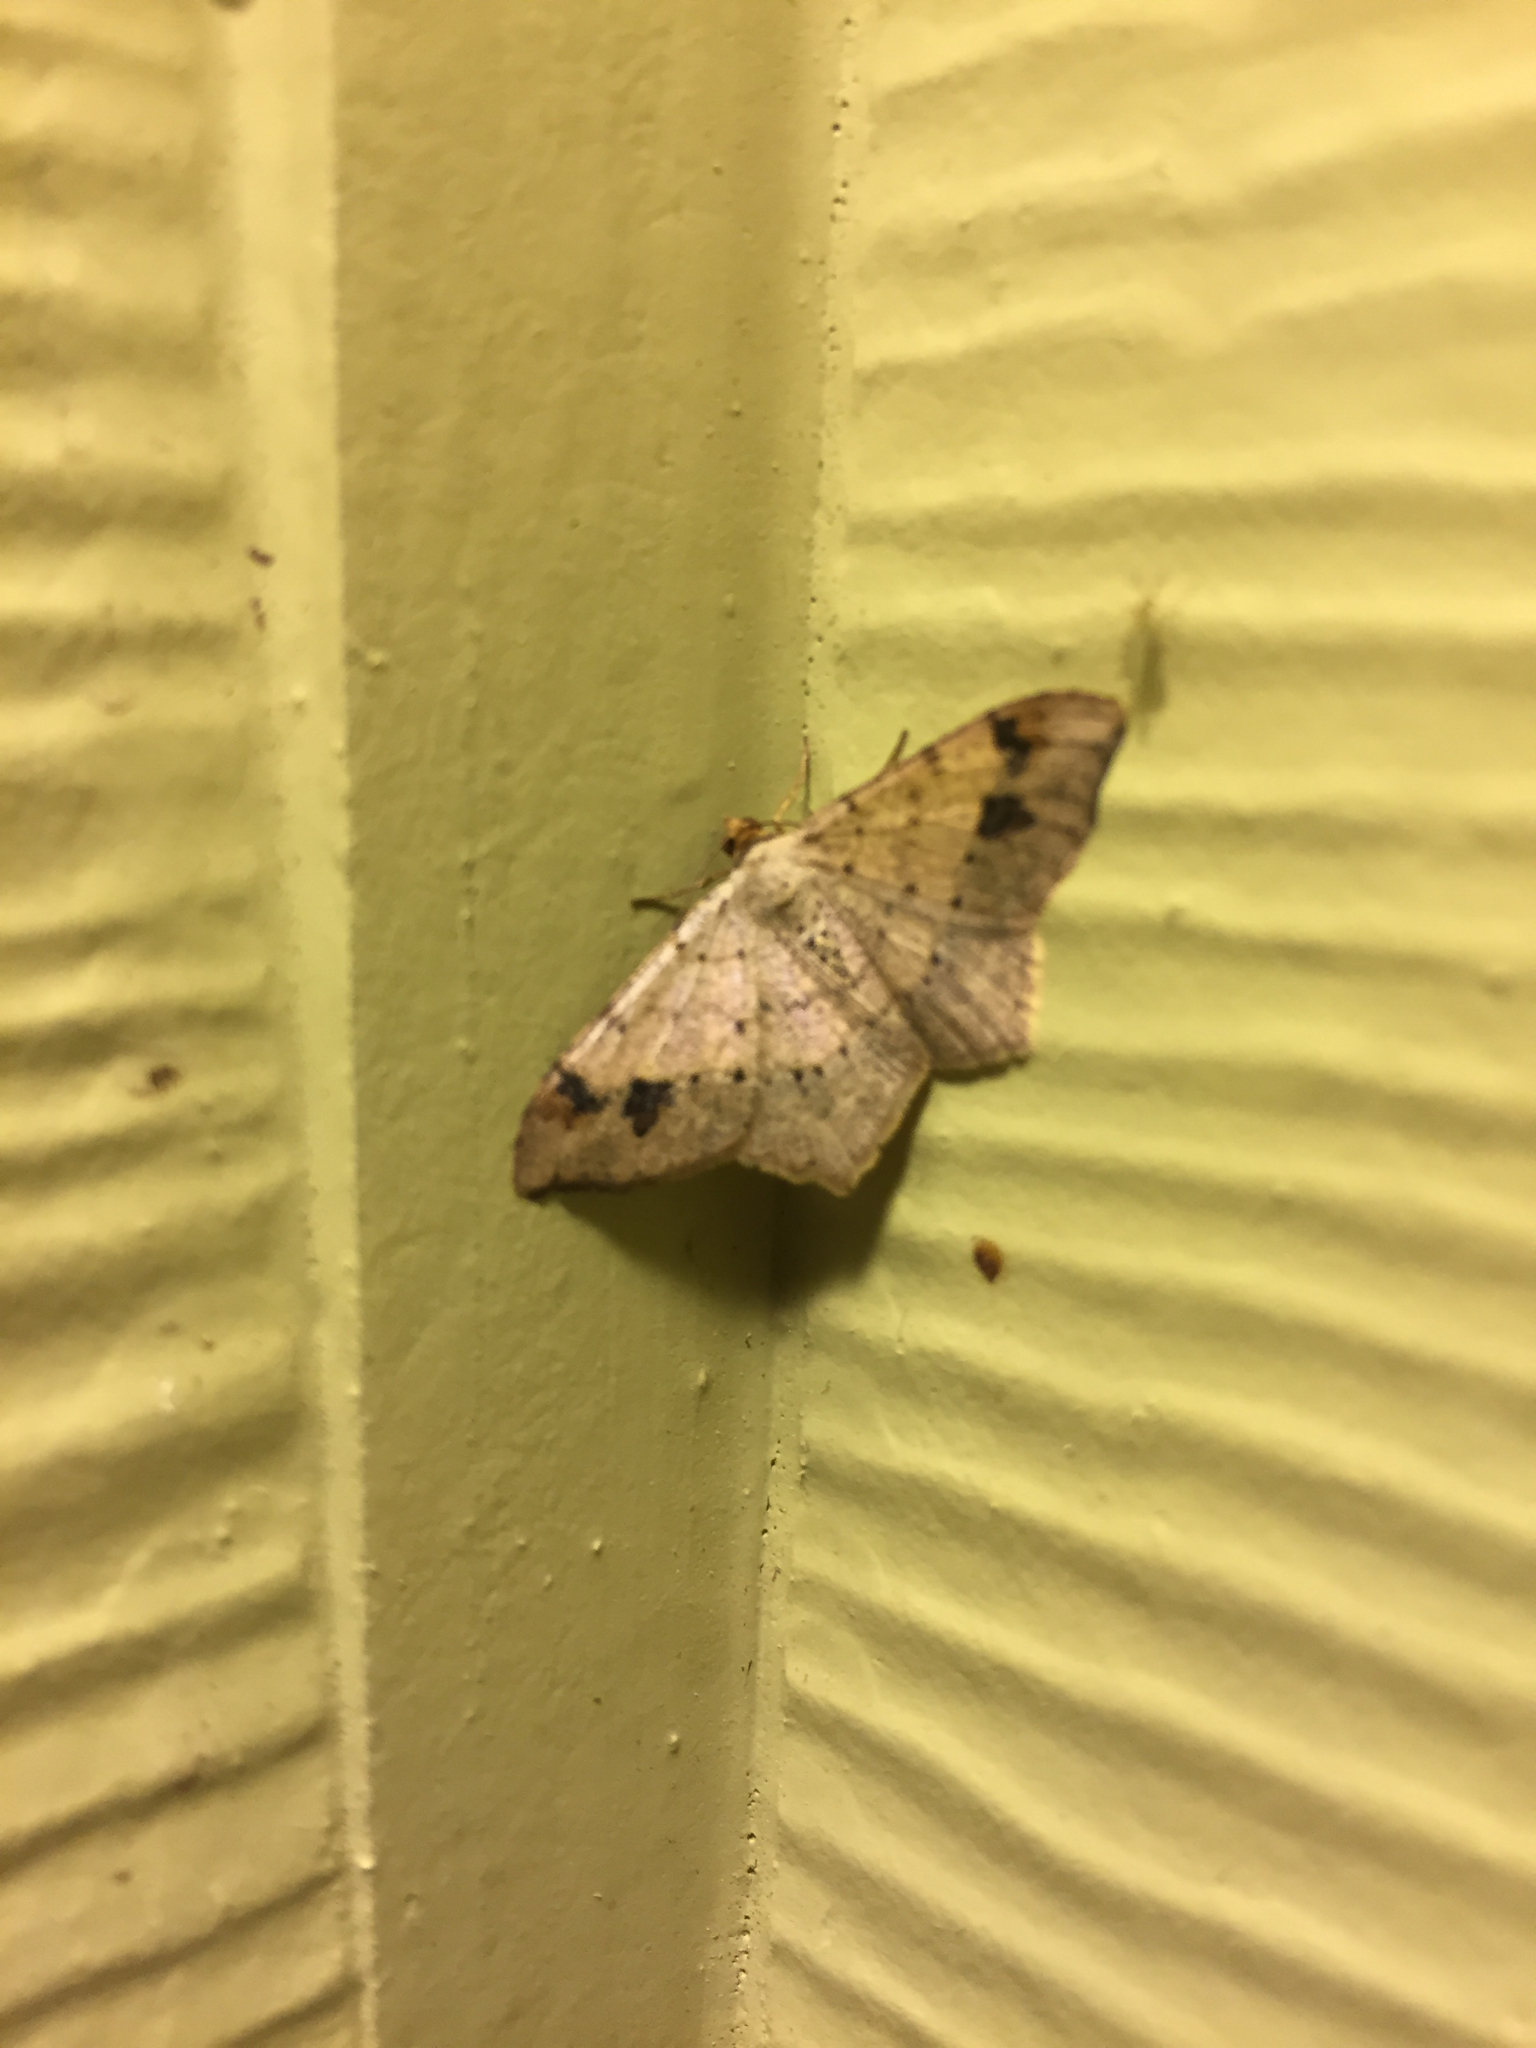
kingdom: Animalia
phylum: Arthropoda
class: Insecta
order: Lepidoptera
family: Geometridae
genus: Macaria
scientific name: Macaria abydata
